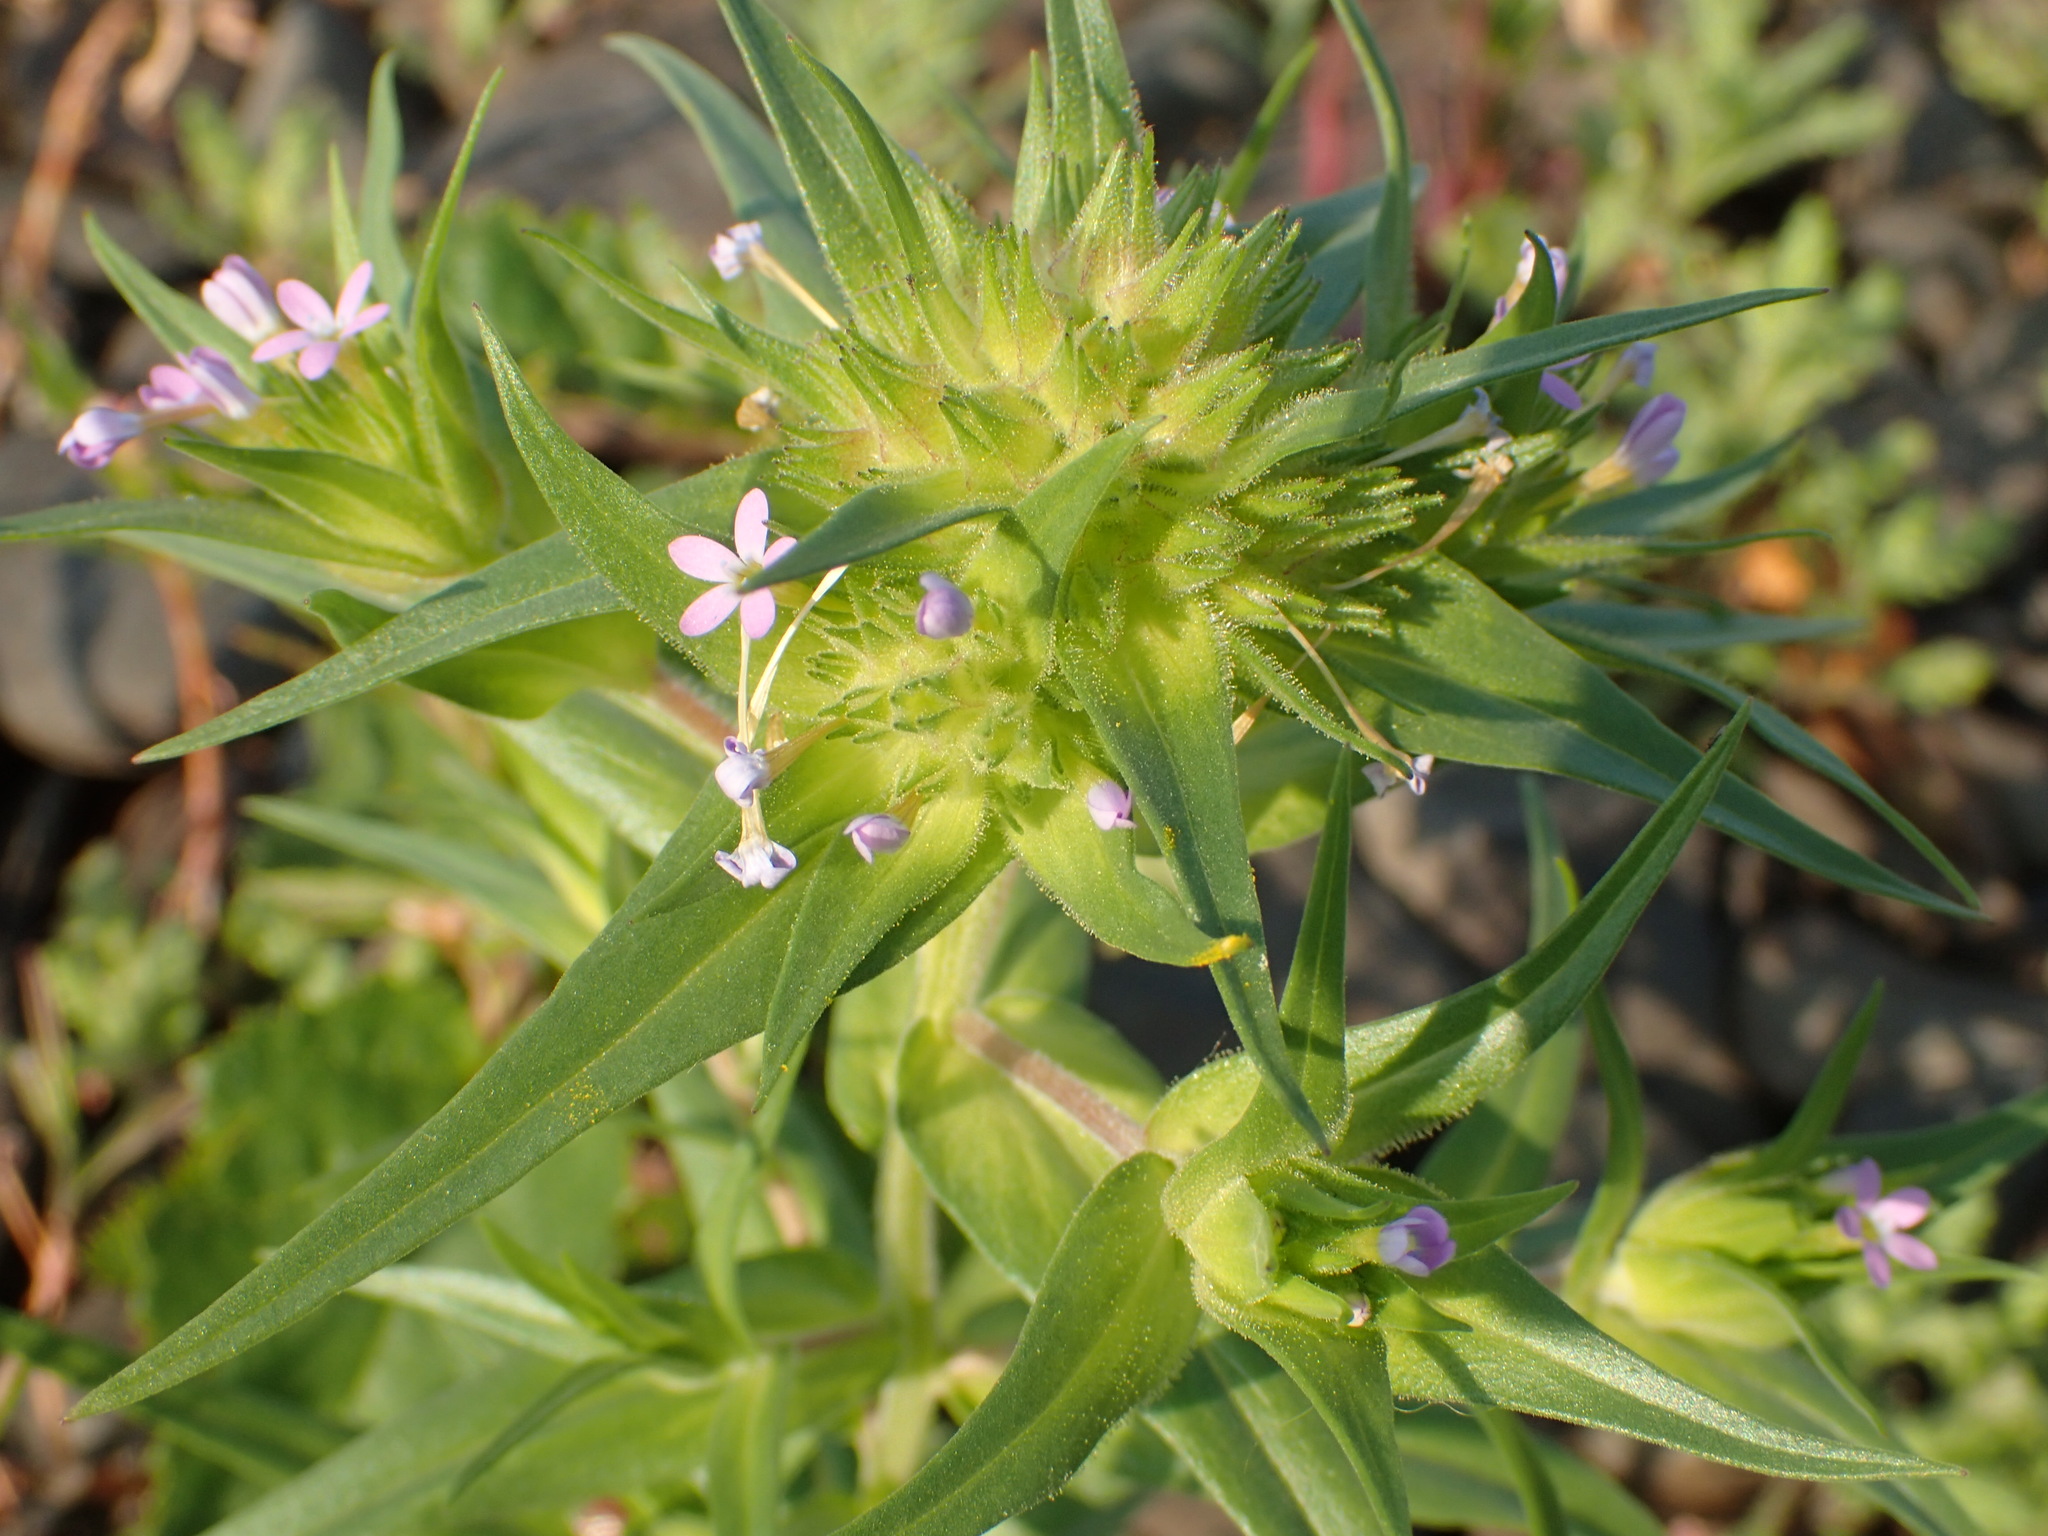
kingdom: Plantae
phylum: Tracheophyta
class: Magnoliopsida
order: Ericales
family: Polemoniaceae
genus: Collomia
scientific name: Collomia linearis
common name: Tiny trumpet
